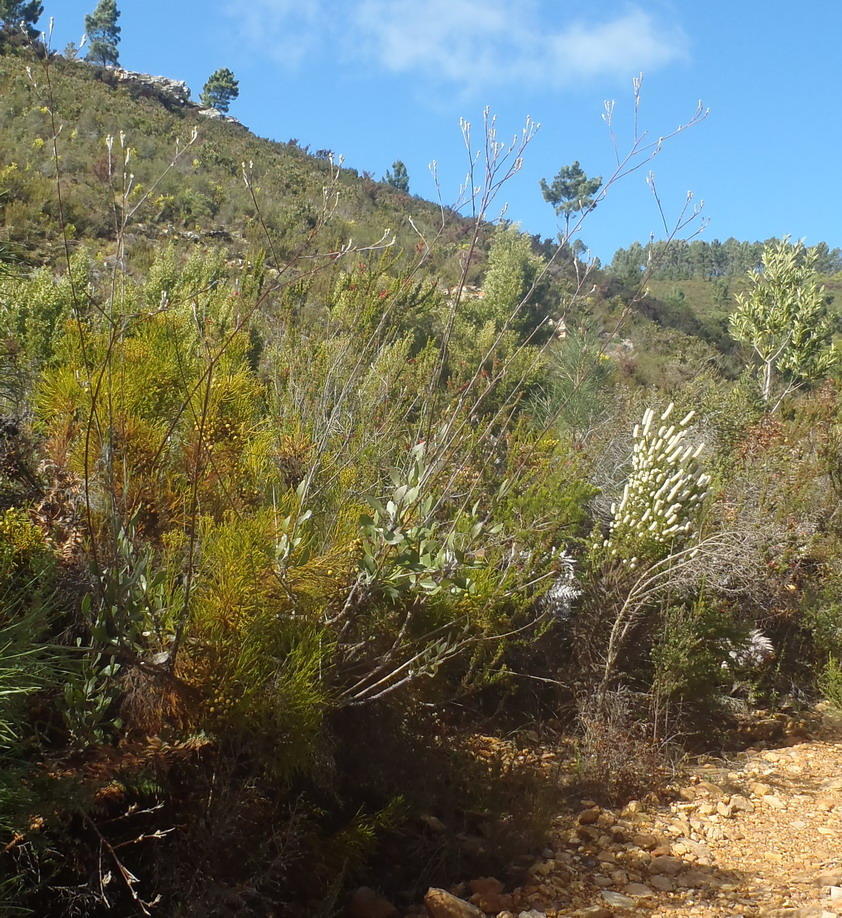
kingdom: Plantae
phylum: Tracheophyta
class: Magnoliopsida
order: Asterales
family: Asteraceae
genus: Osteospermum
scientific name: Osteospermum junceum
